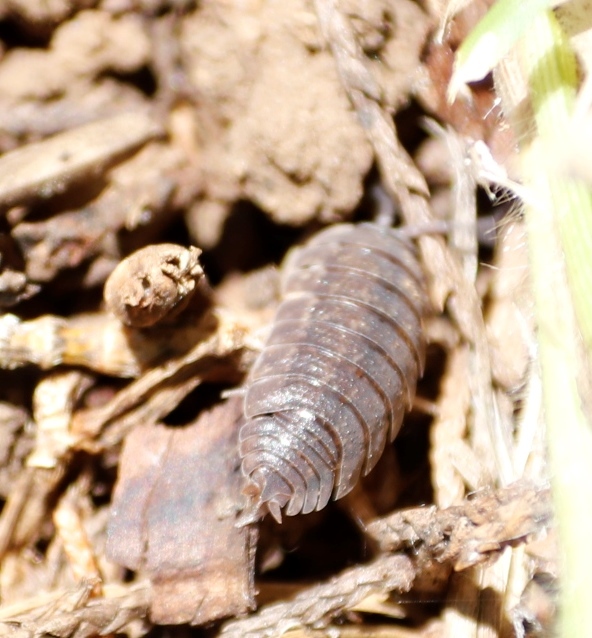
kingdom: Animalia
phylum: Arthropoda
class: Malacostraca
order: Isopoda
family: Porcellionidae
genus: Porcellio
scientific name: Porcellio scaber
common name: Common rough woodlouse
